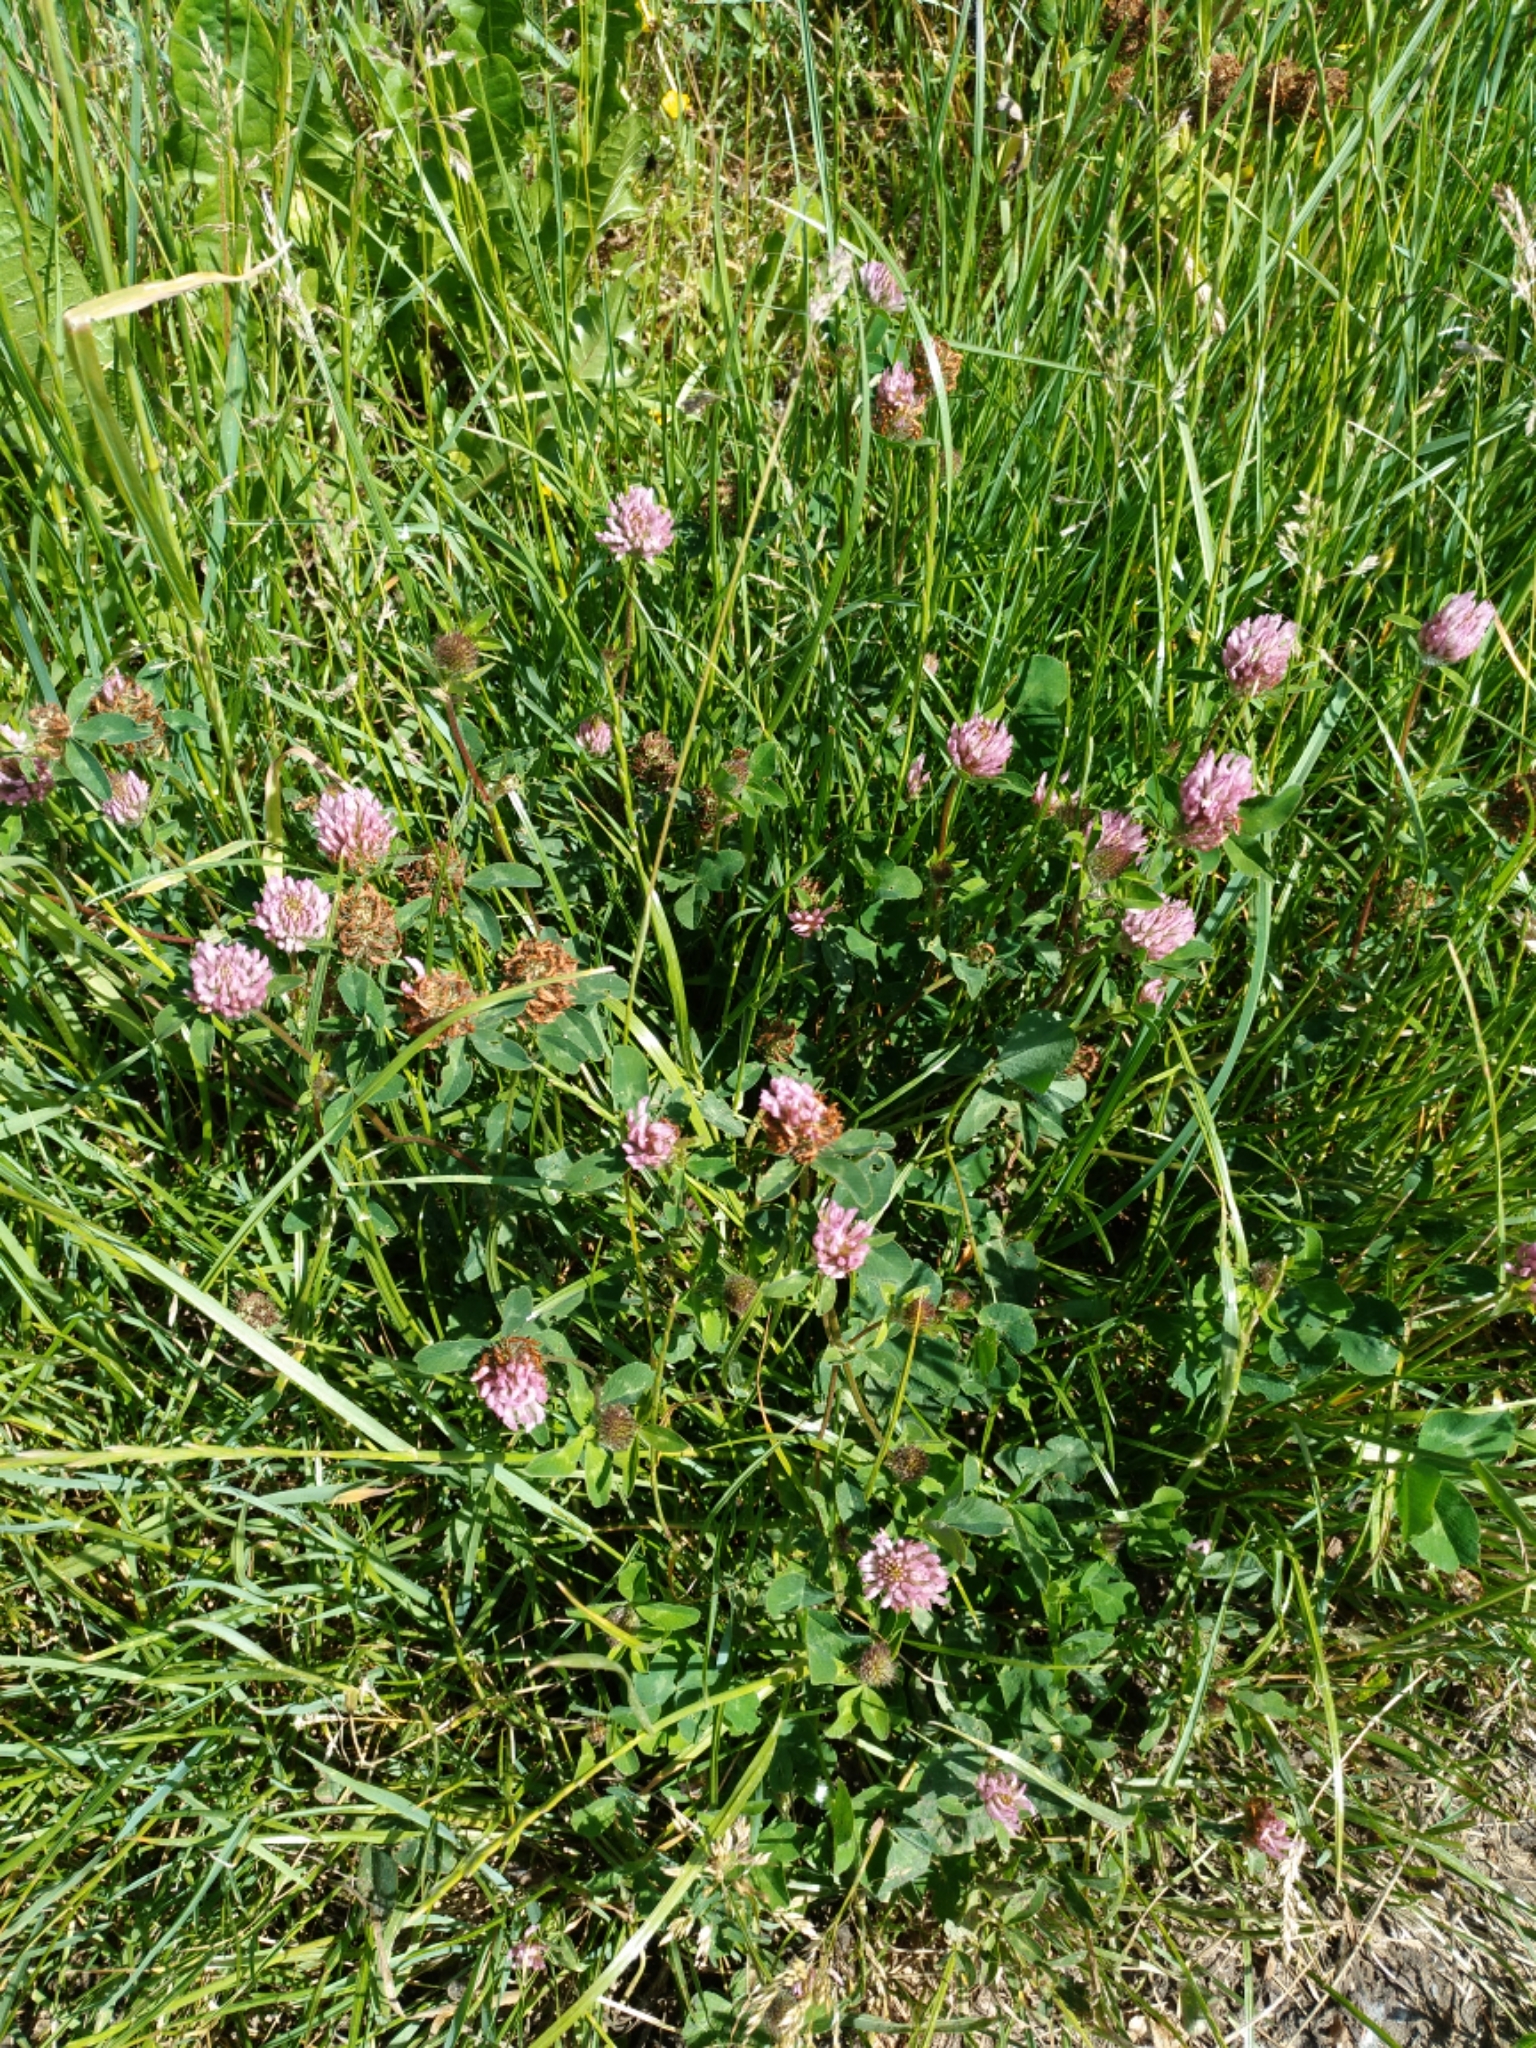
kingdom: Plantae
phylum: Tracheophyta
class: Magnoliopsida
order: Fabales
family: Fabaceae
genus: Trifolium
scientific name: Trifolium pratense
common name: Red clover
